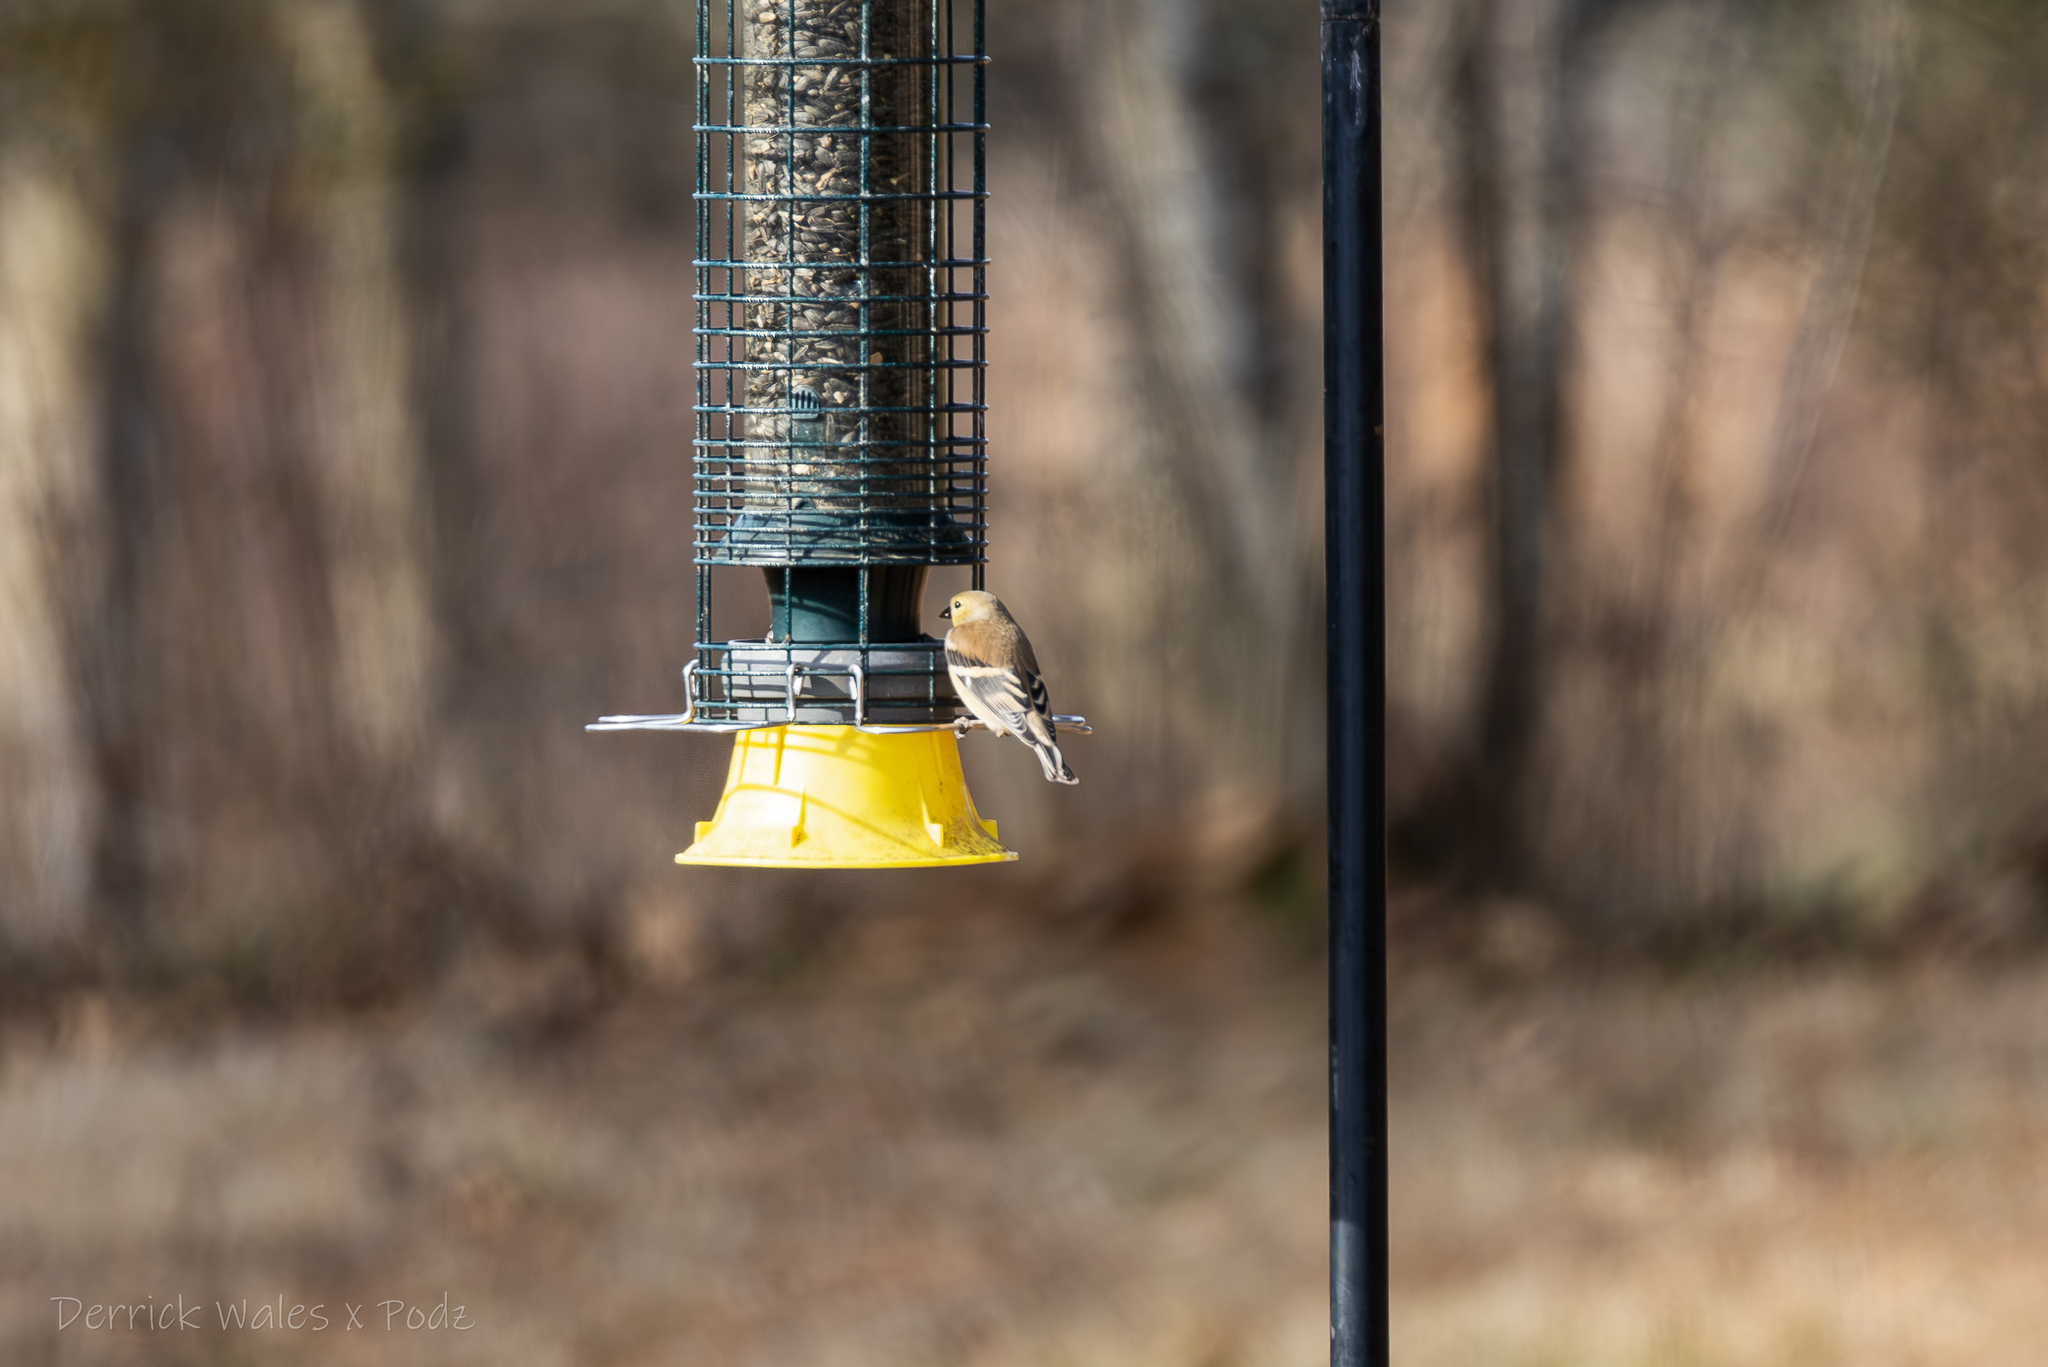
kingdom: Animalia
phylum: Chordata
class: Aves
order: Passeriformes
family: Fringillidae
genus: Spinus
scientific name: Spinus tristis
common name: American goldfinch
